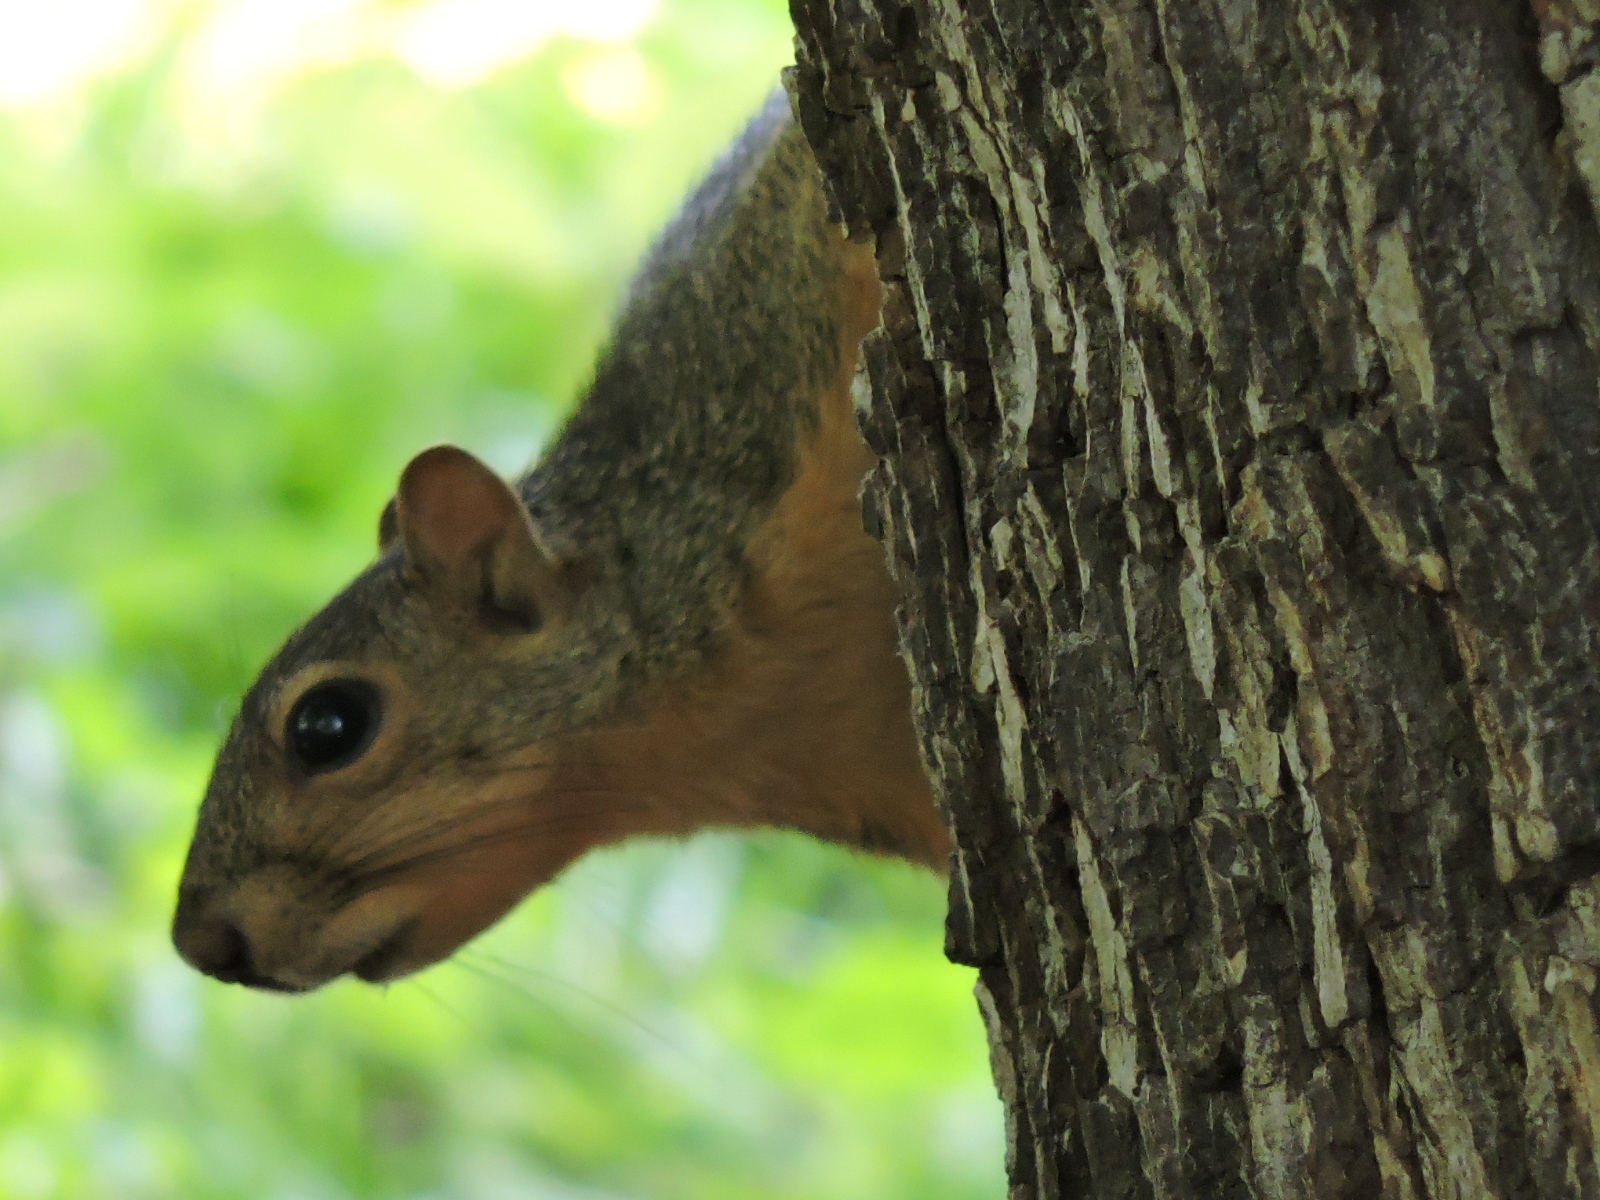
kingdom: Animalia
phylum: Chordata
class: Mammalia
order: Rodentia
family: Sciuridae
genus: Sciurus
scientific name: Sciurus niger
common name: Fox squirrel
